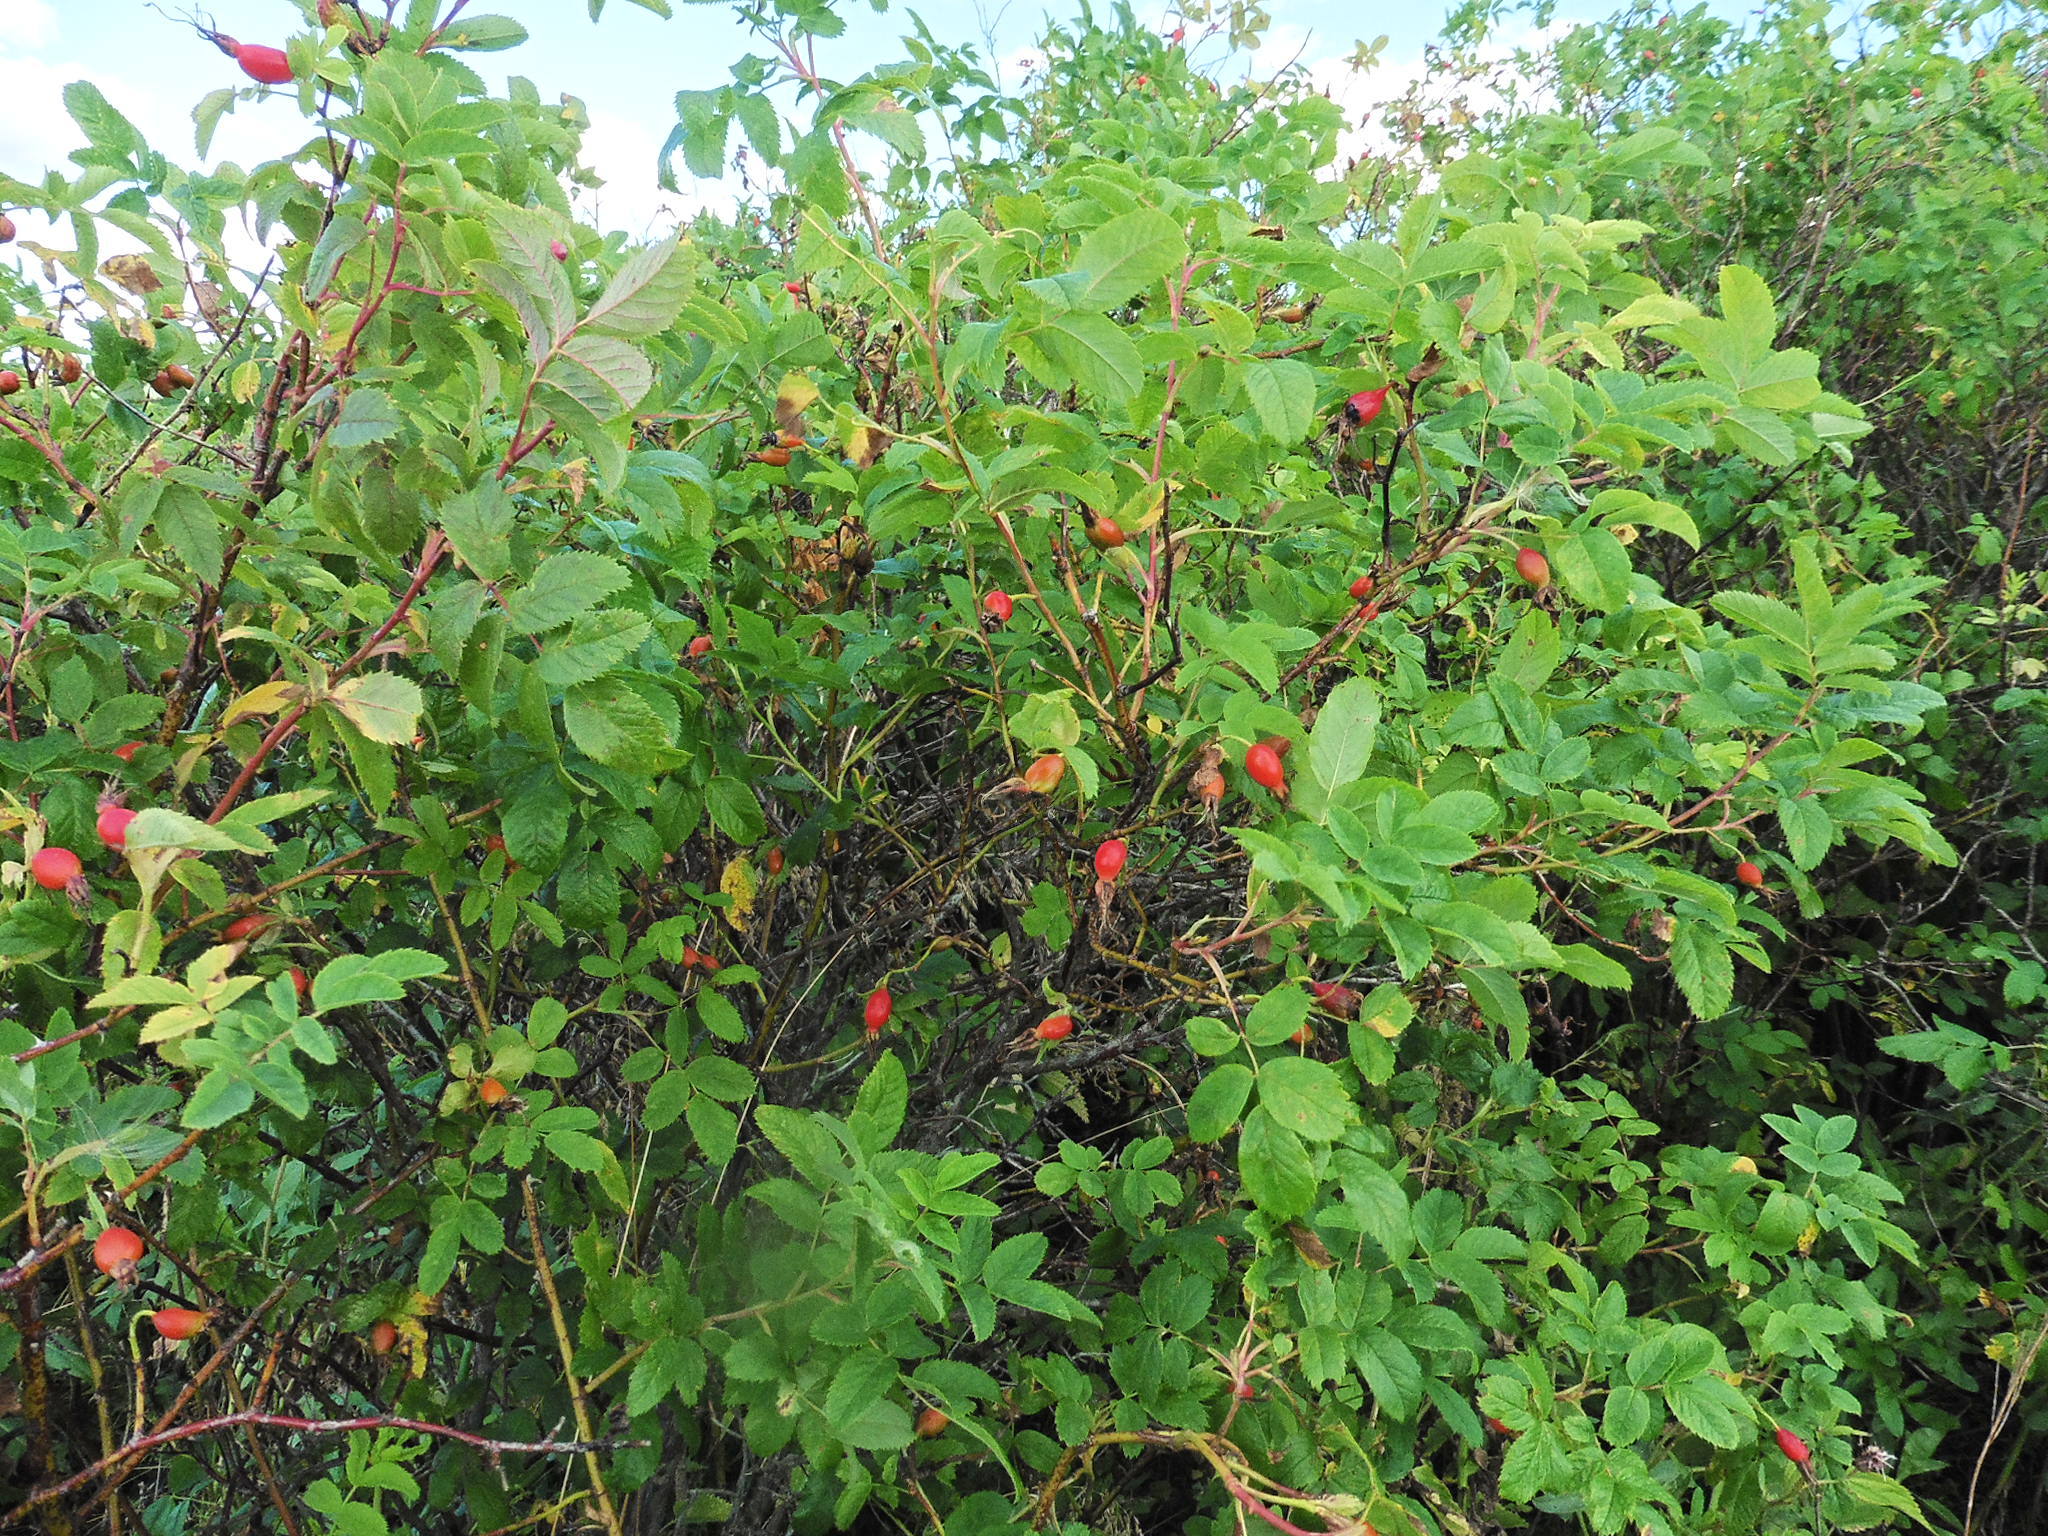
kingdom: Plantae
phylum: Tracheophyta
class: Magnoliopsida
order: Rosales
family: Rosaceae
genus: Rosa
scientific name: Rosa majalis
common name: Cinnamon rose
